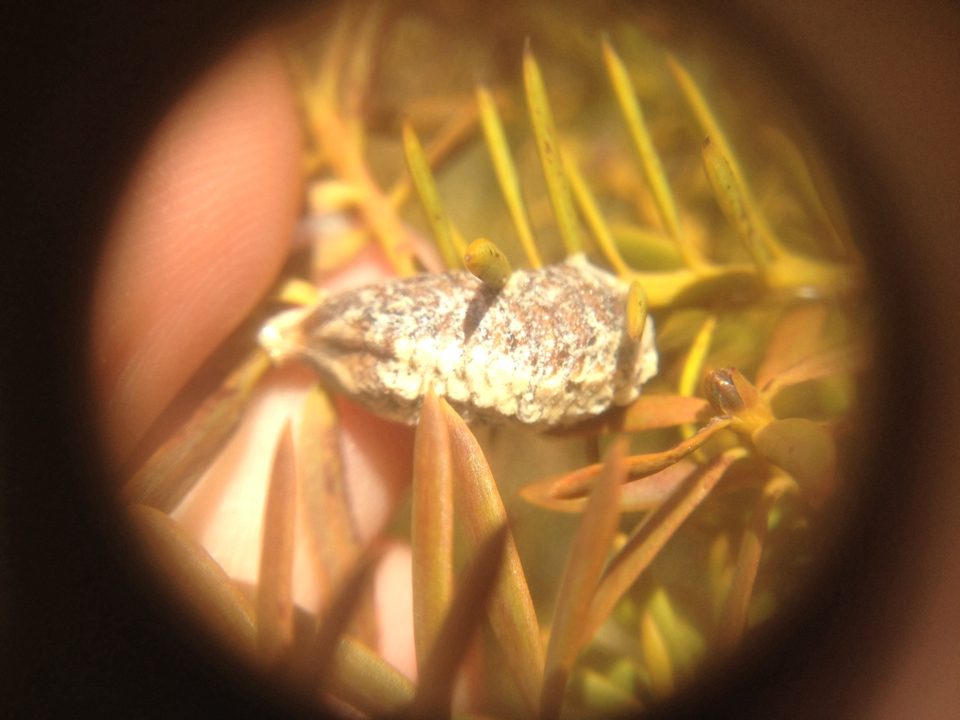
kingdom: Animalia
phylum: Arthropoda
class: Insecta
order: Mantodea
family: Mantidae
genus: Orthodera
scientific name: Orthodera novaezealandiae
